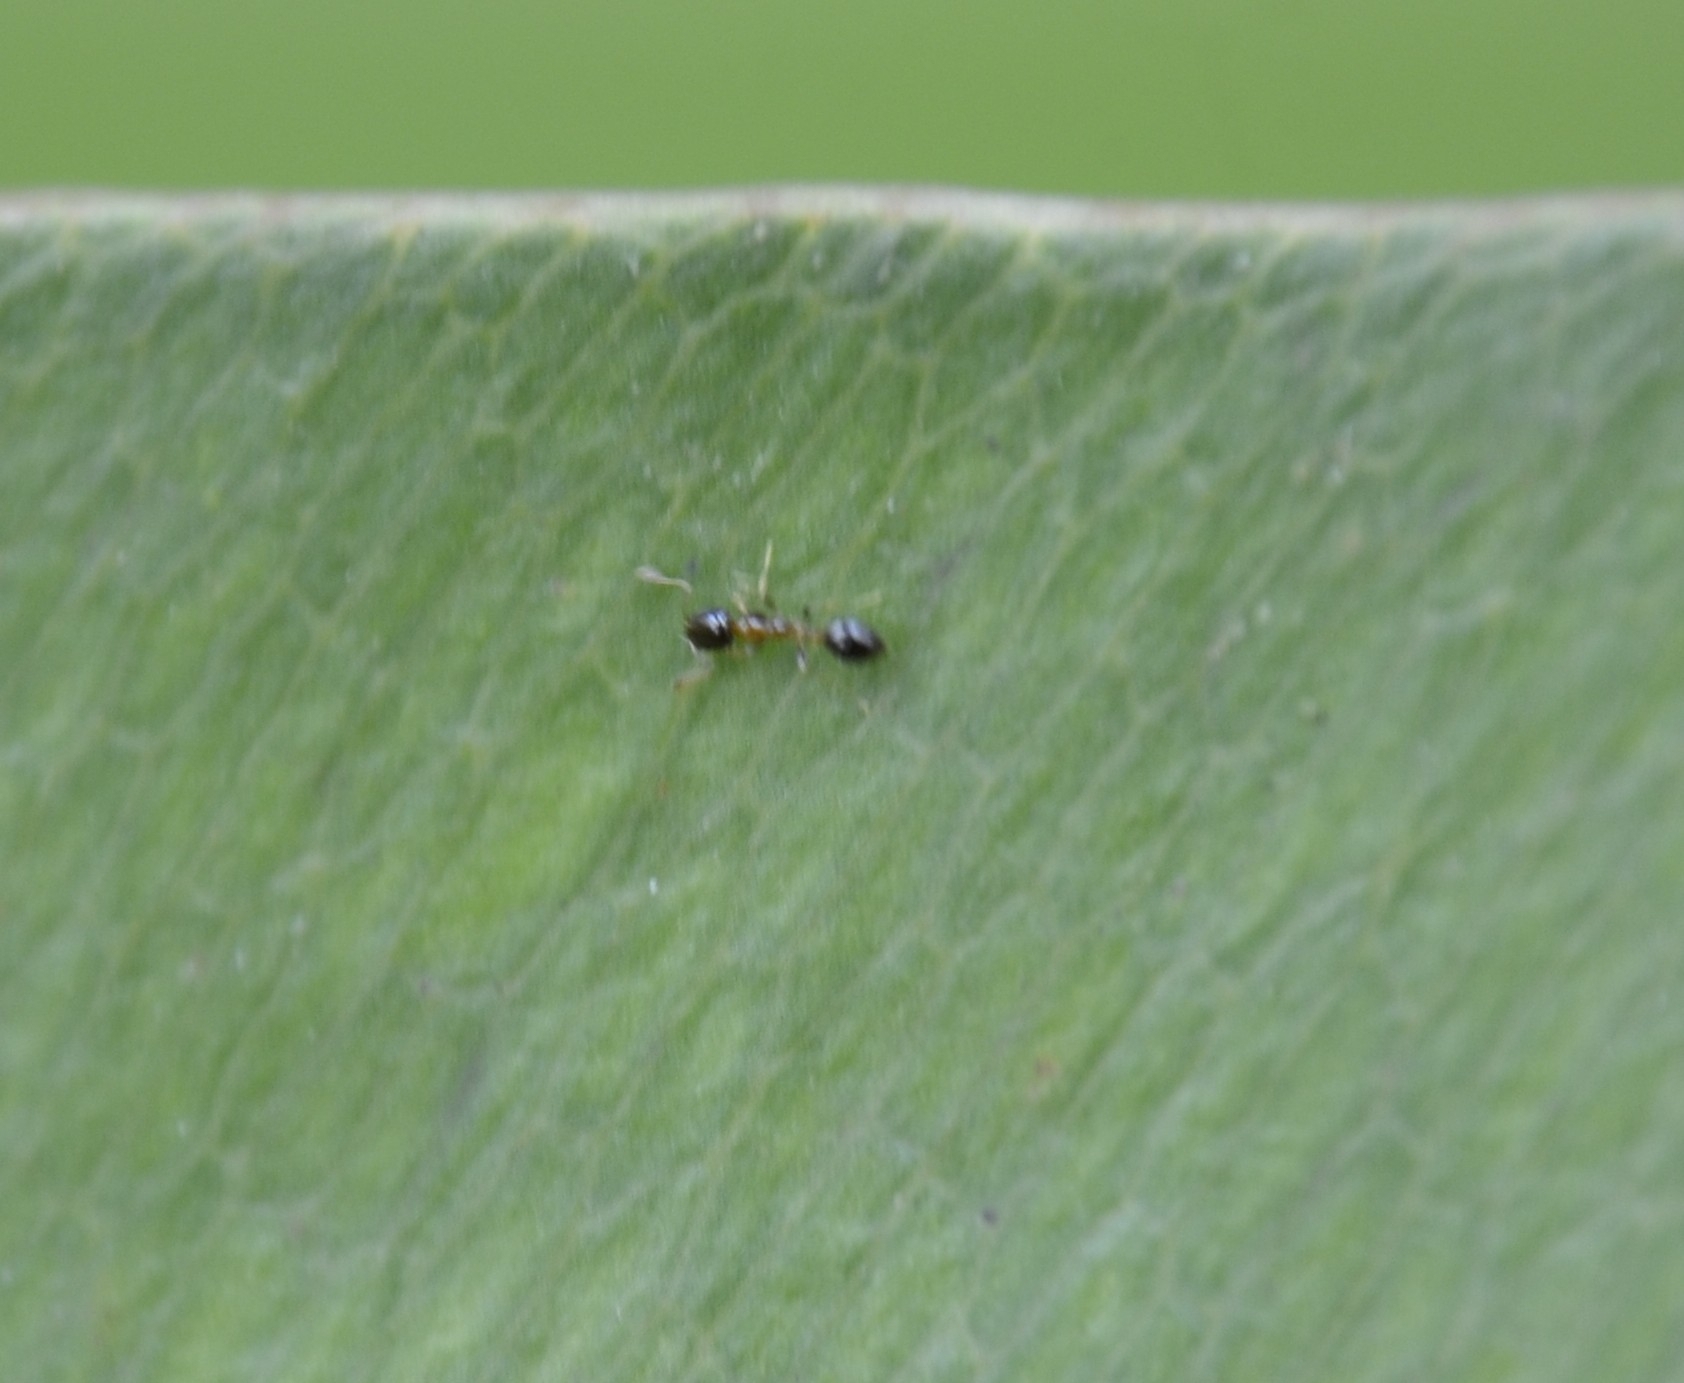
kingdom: Animalia
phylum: Arthropoda
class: Insecta
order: Hymenoptera
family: Formicidae
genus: Monomorium
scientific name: Monomorium floricola
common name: Bicolored trailing ant
